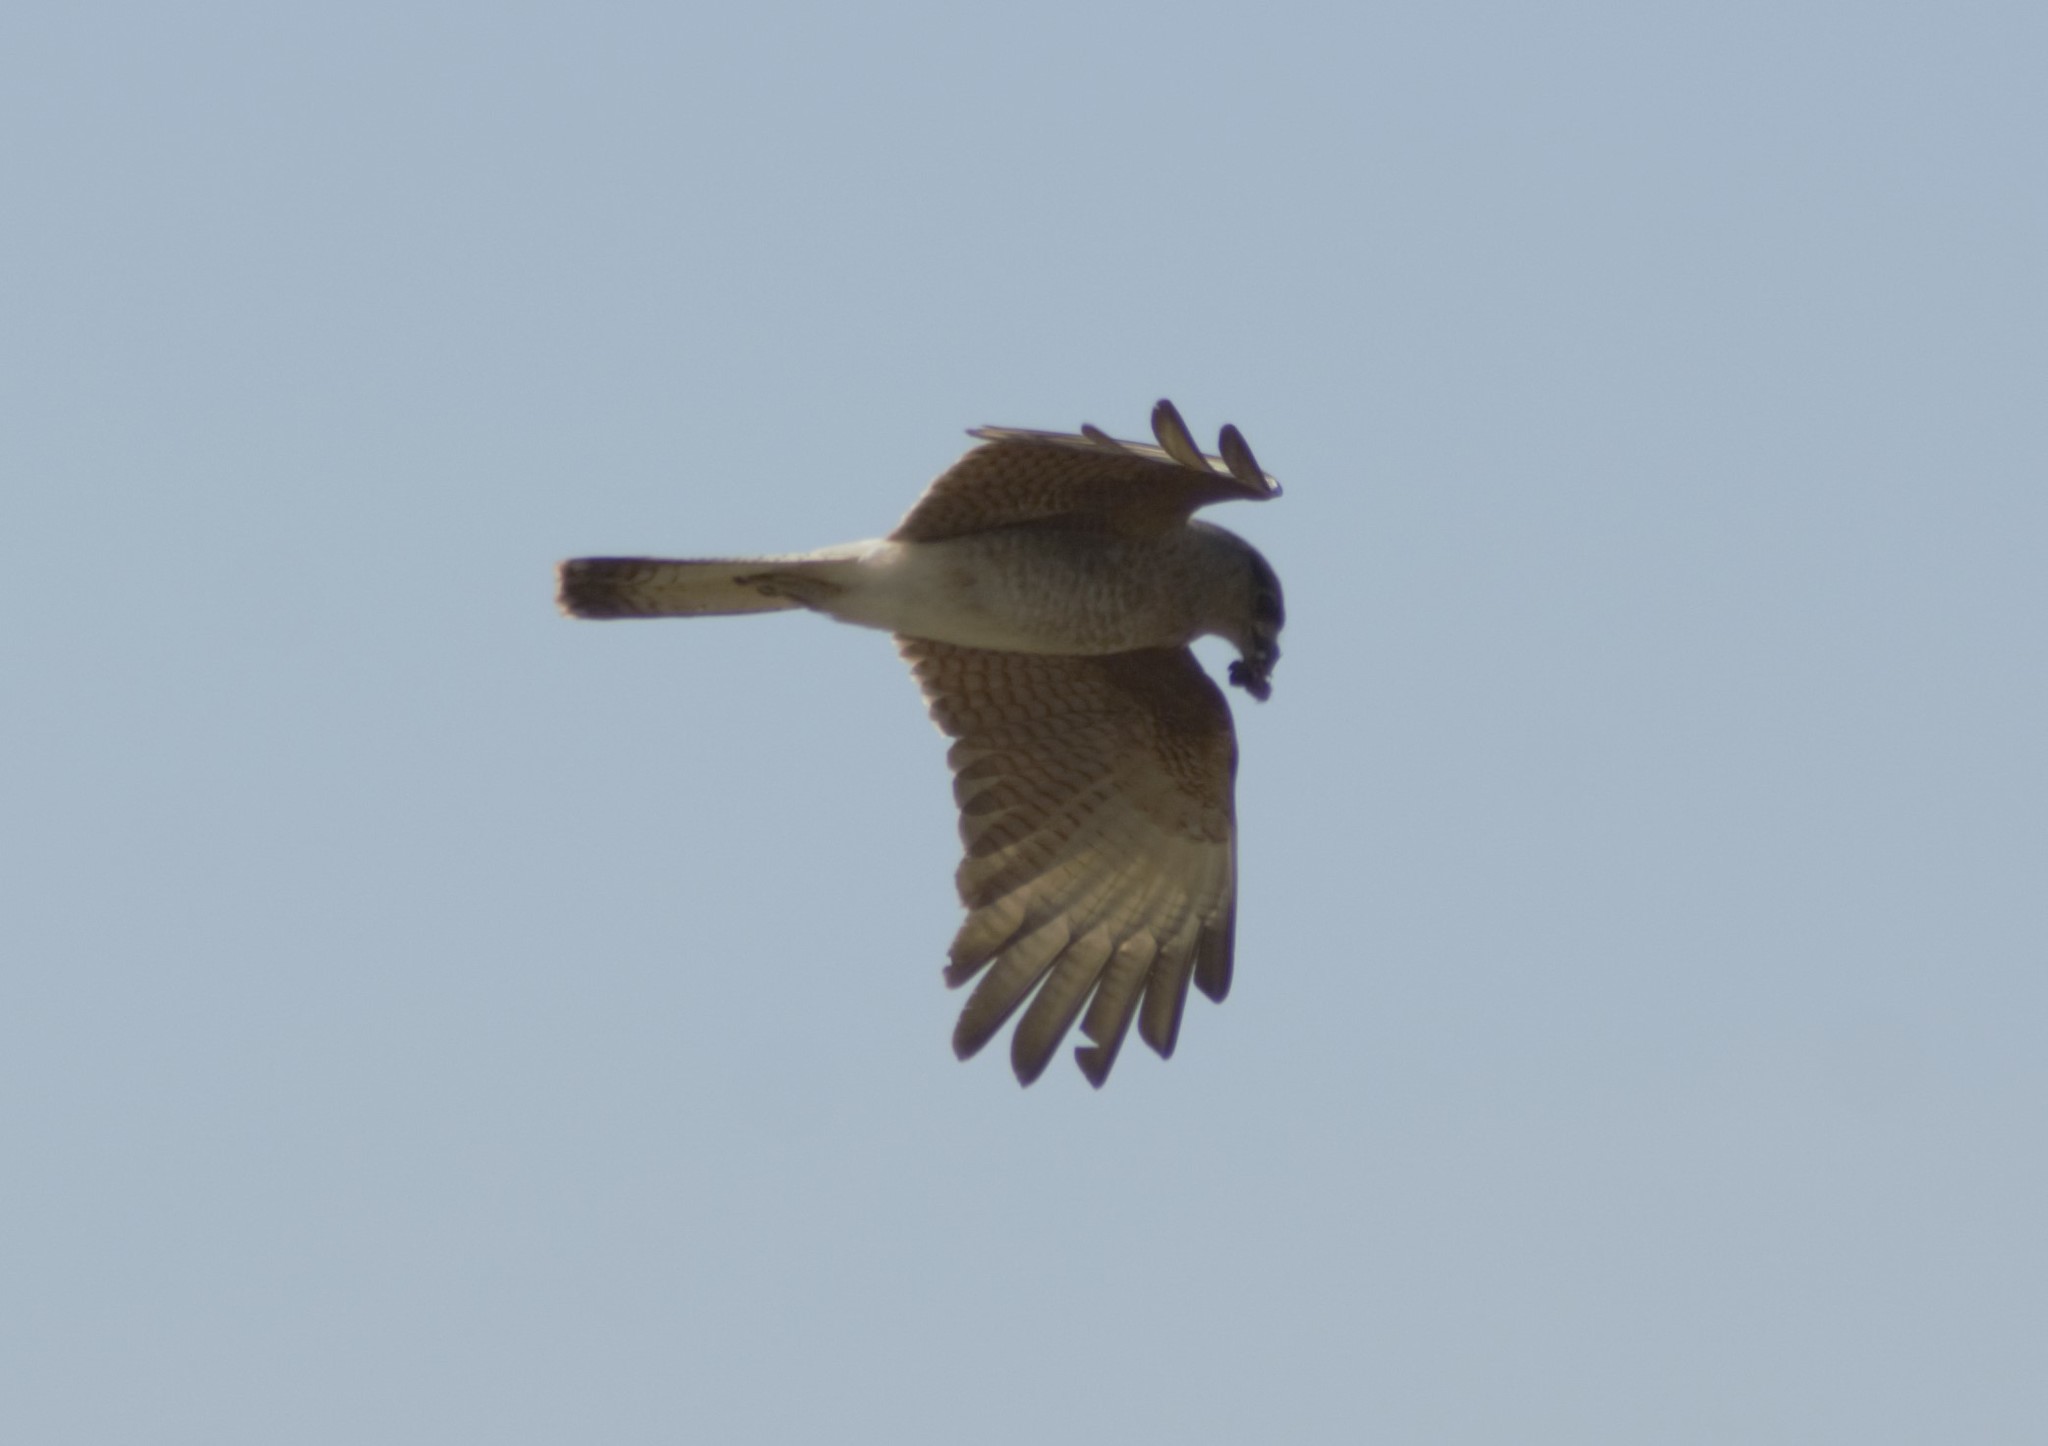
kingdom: Animalia
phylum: Chordata
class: Aves
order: Falconiformes
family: Falconidae
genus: Daptrius
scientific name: Daptrius
